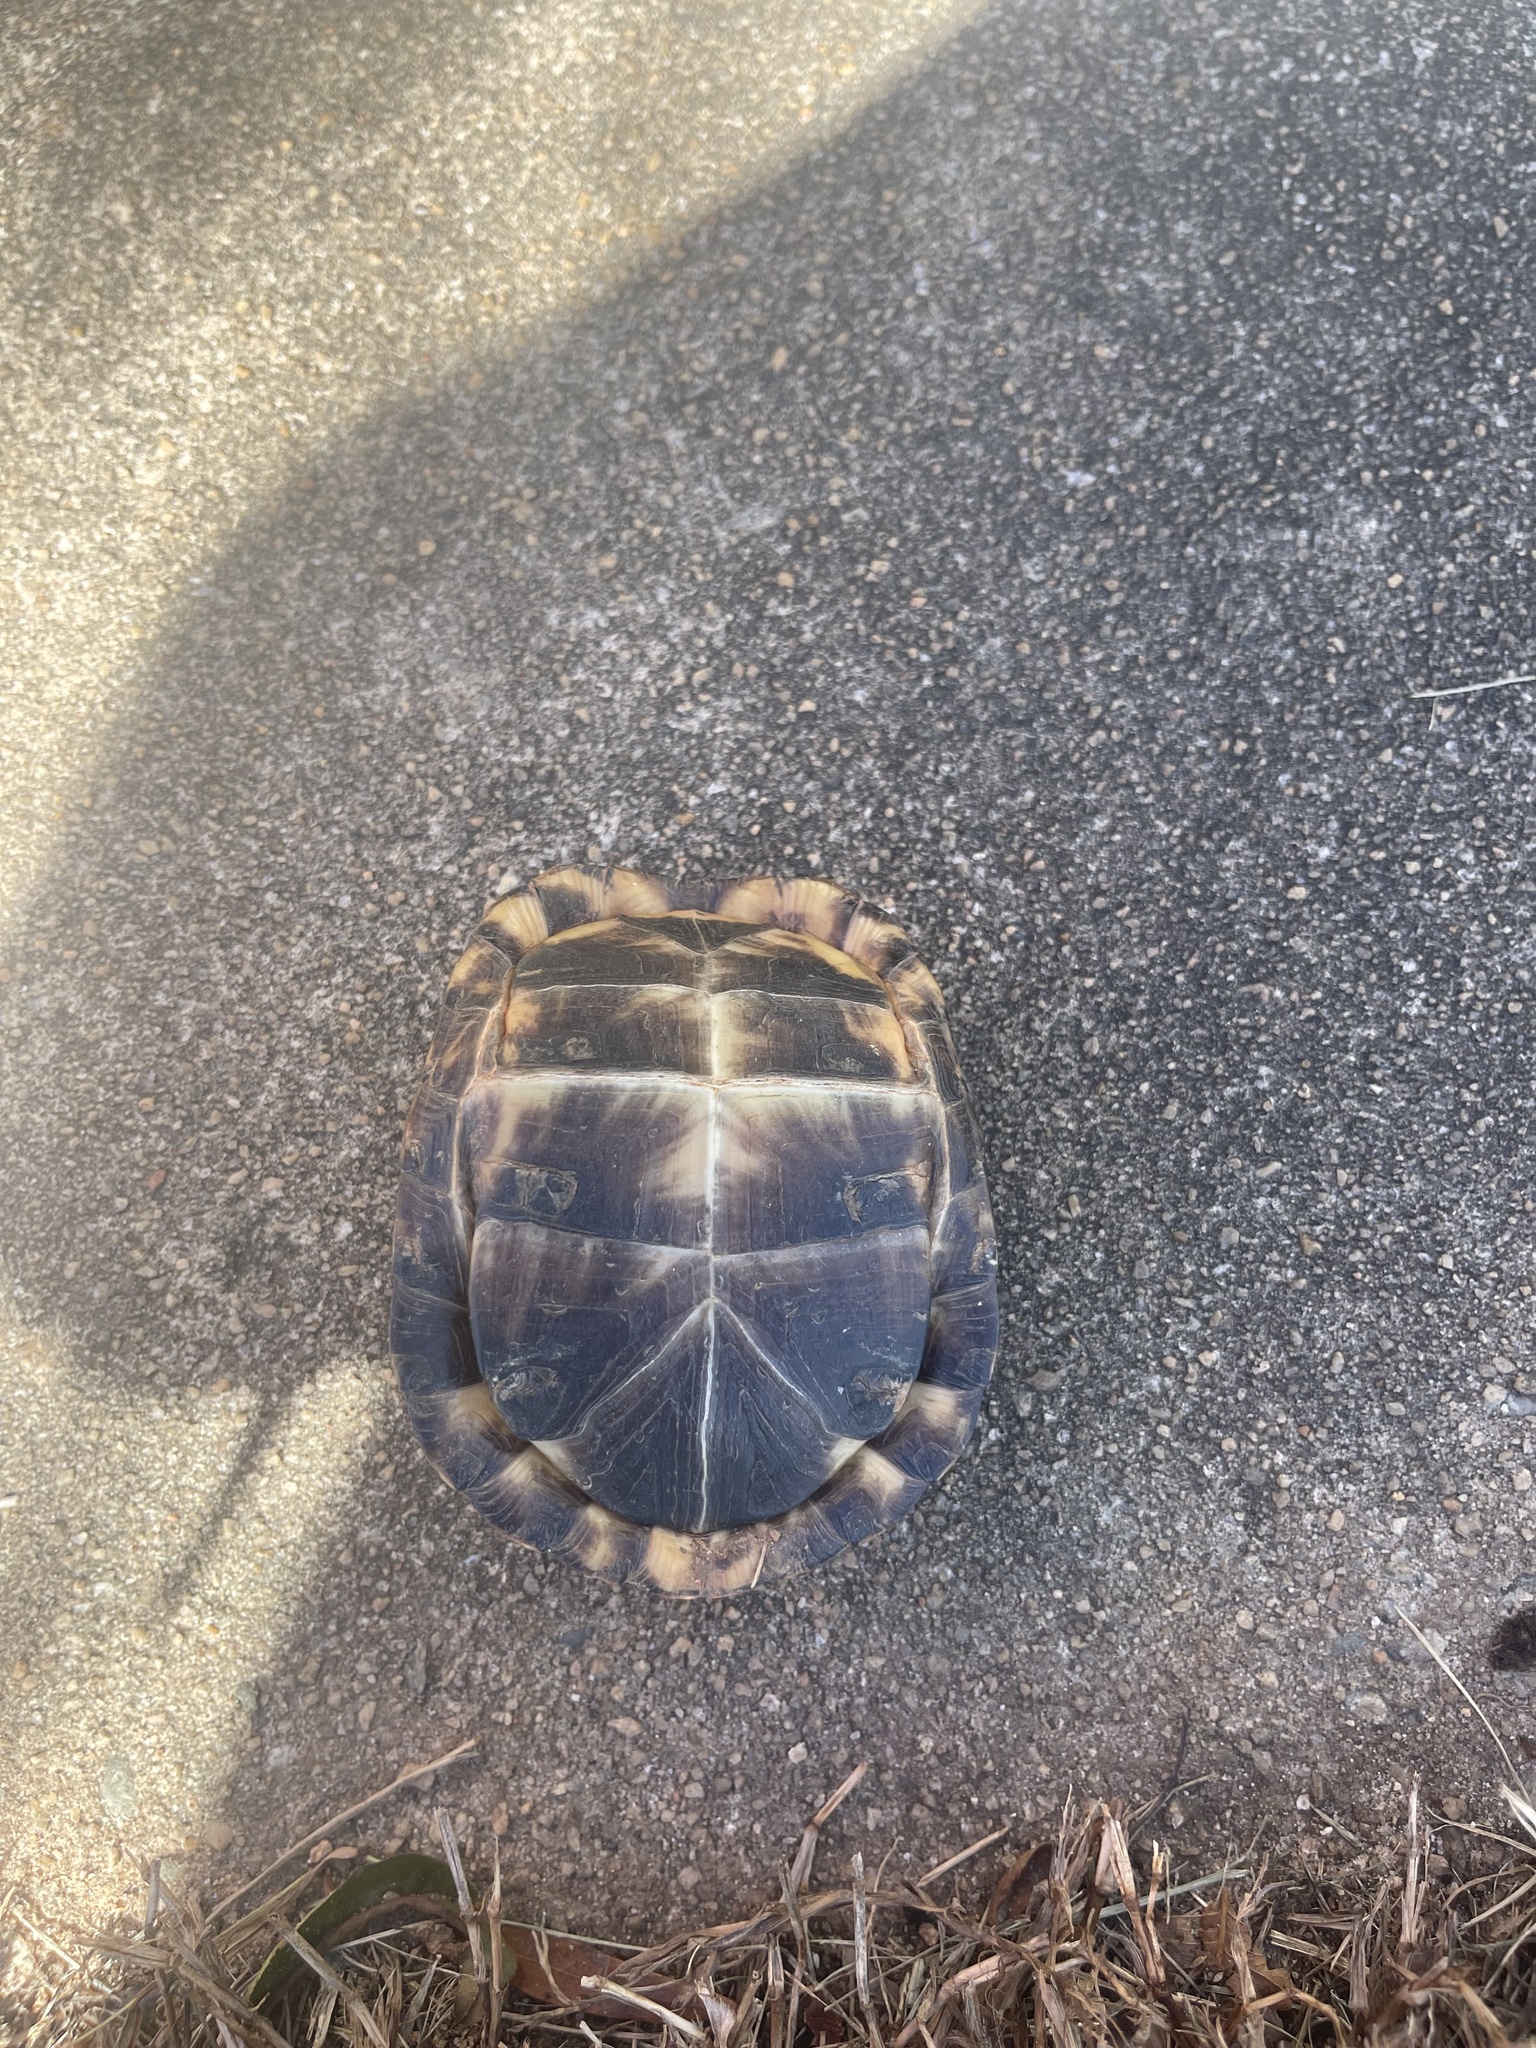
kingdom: Animalia
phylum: Chordata
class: Testudines
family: Emydidae
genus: Terrapene
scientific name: Terrapene carolina
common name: Common box turtle
